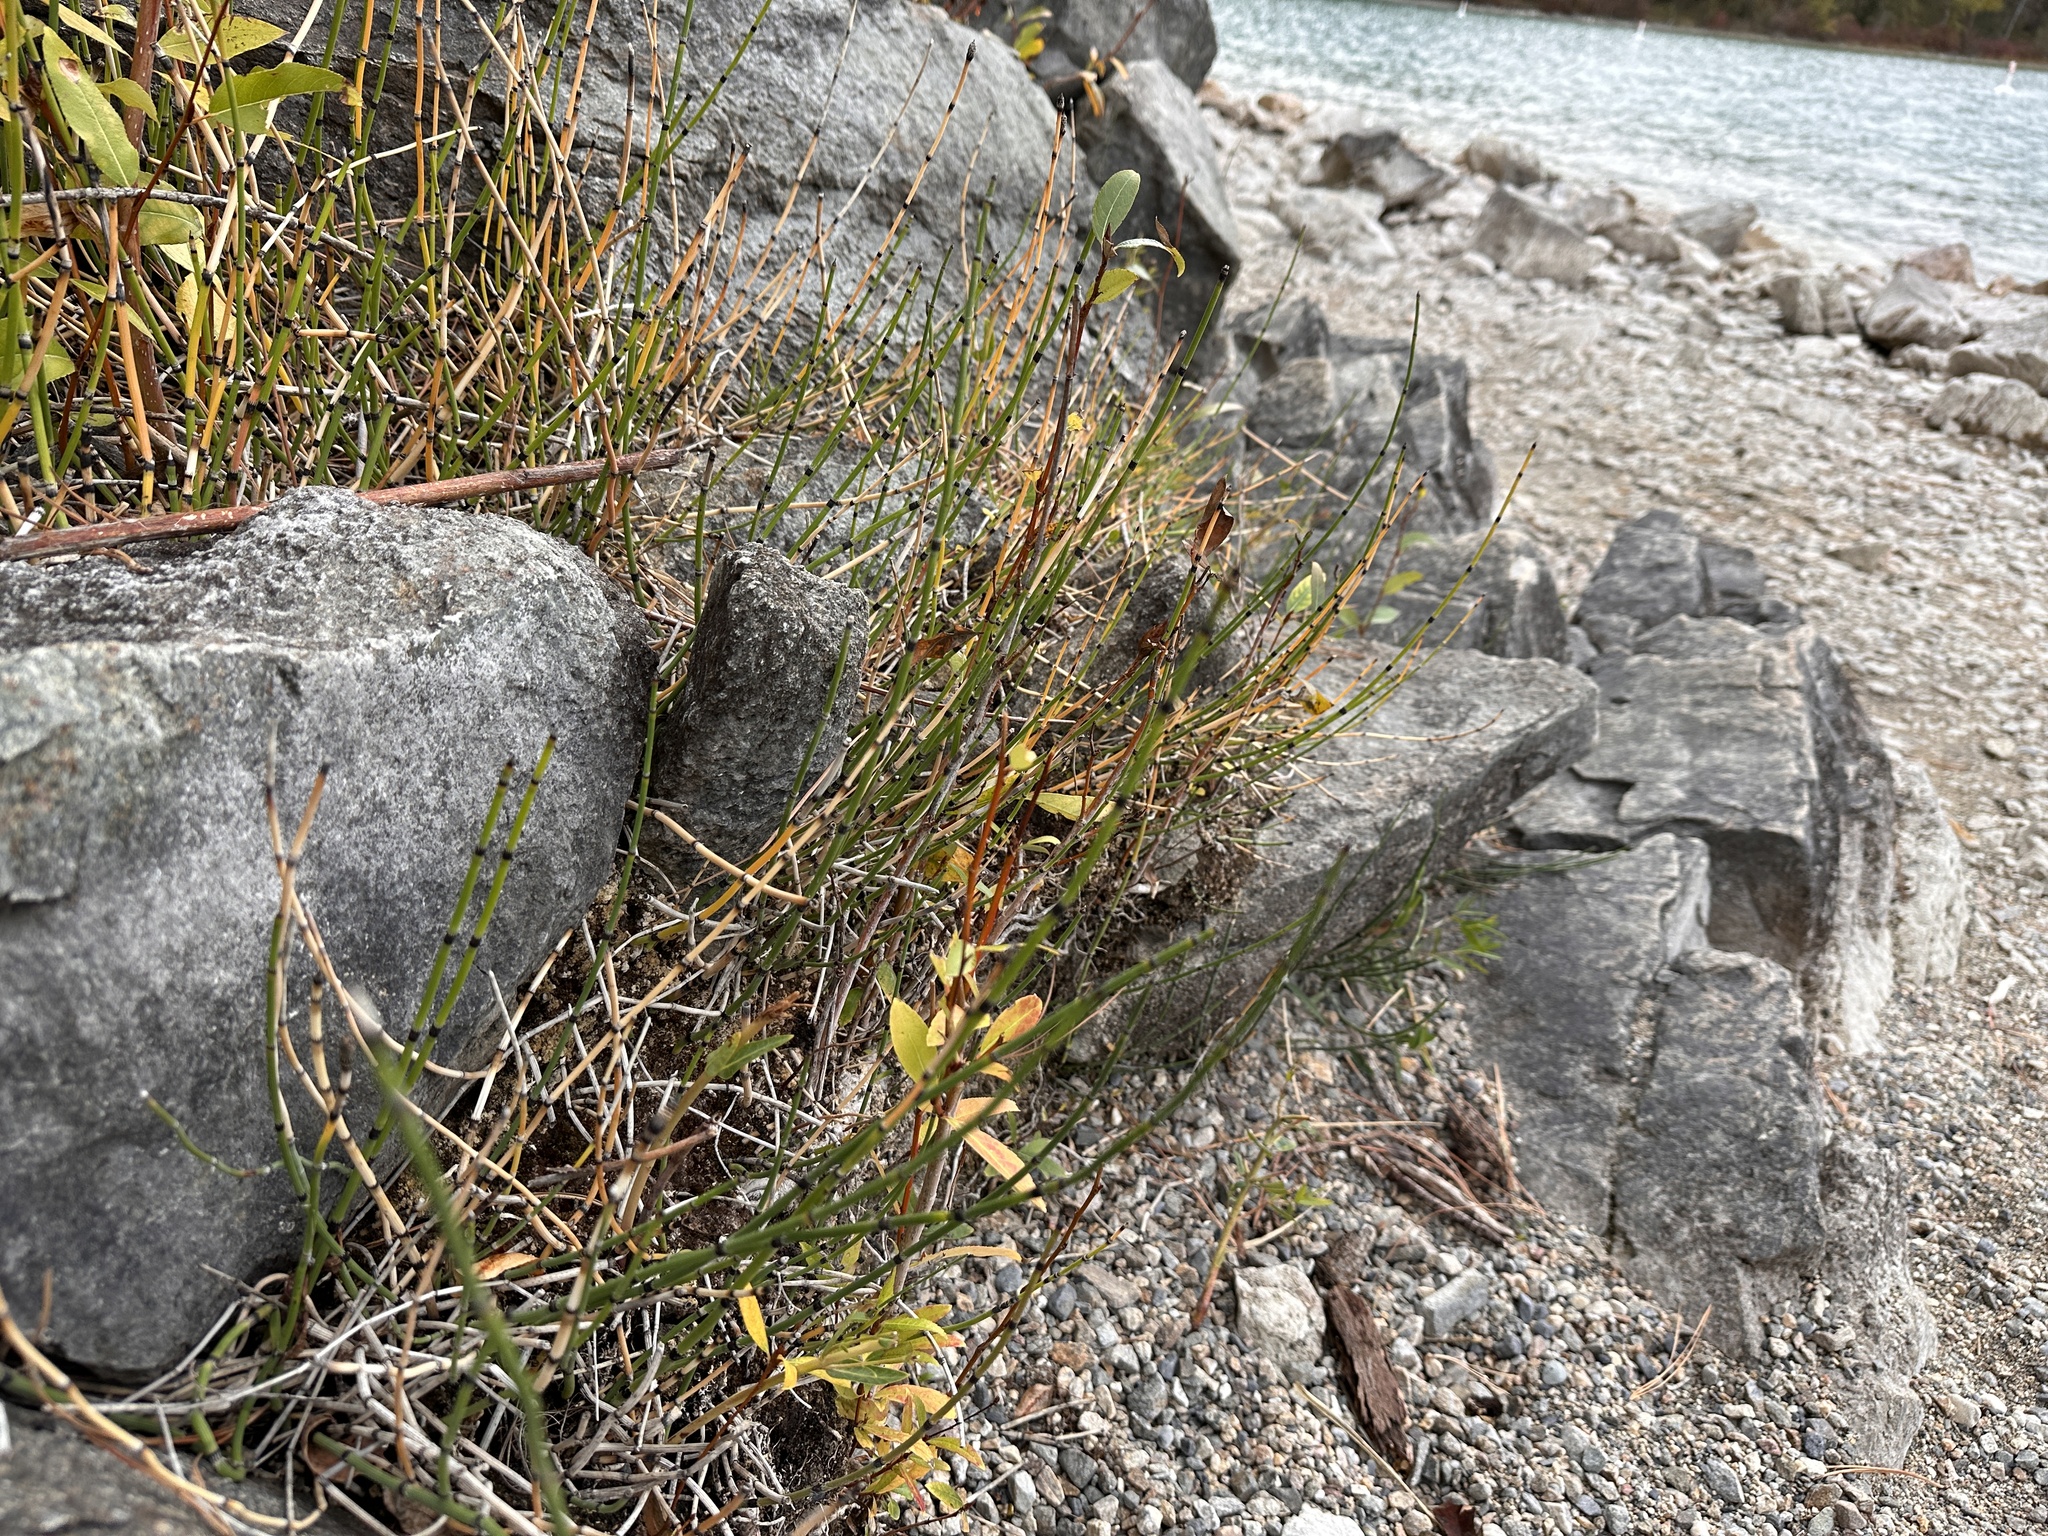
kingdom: Plantae
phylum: Tracheophyta
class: Polypodiopsida
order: Equisetales
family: Equisetaceae
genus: Equisetum
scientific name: Equisetum trachyodon
